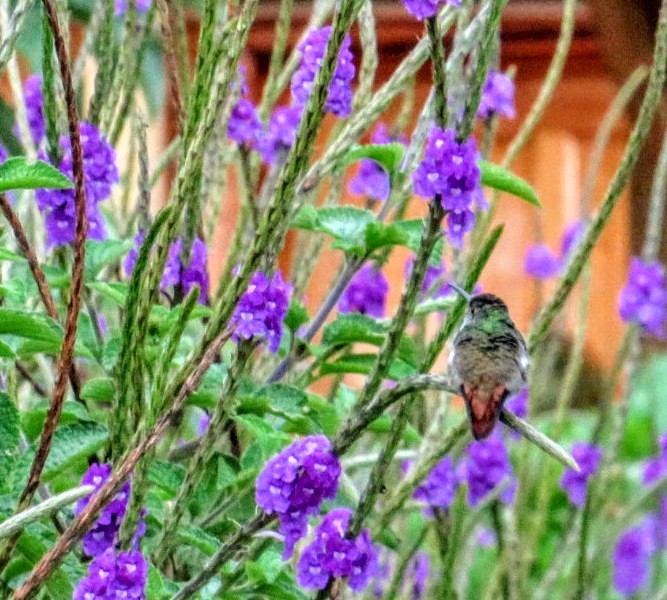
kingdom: Animalia
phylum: Chordata
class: Aves
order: Apodiformes
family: Trochilidae
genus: Amazilia
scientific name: Amazilia tzacatl
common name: Rufous-tailed hummingbird
